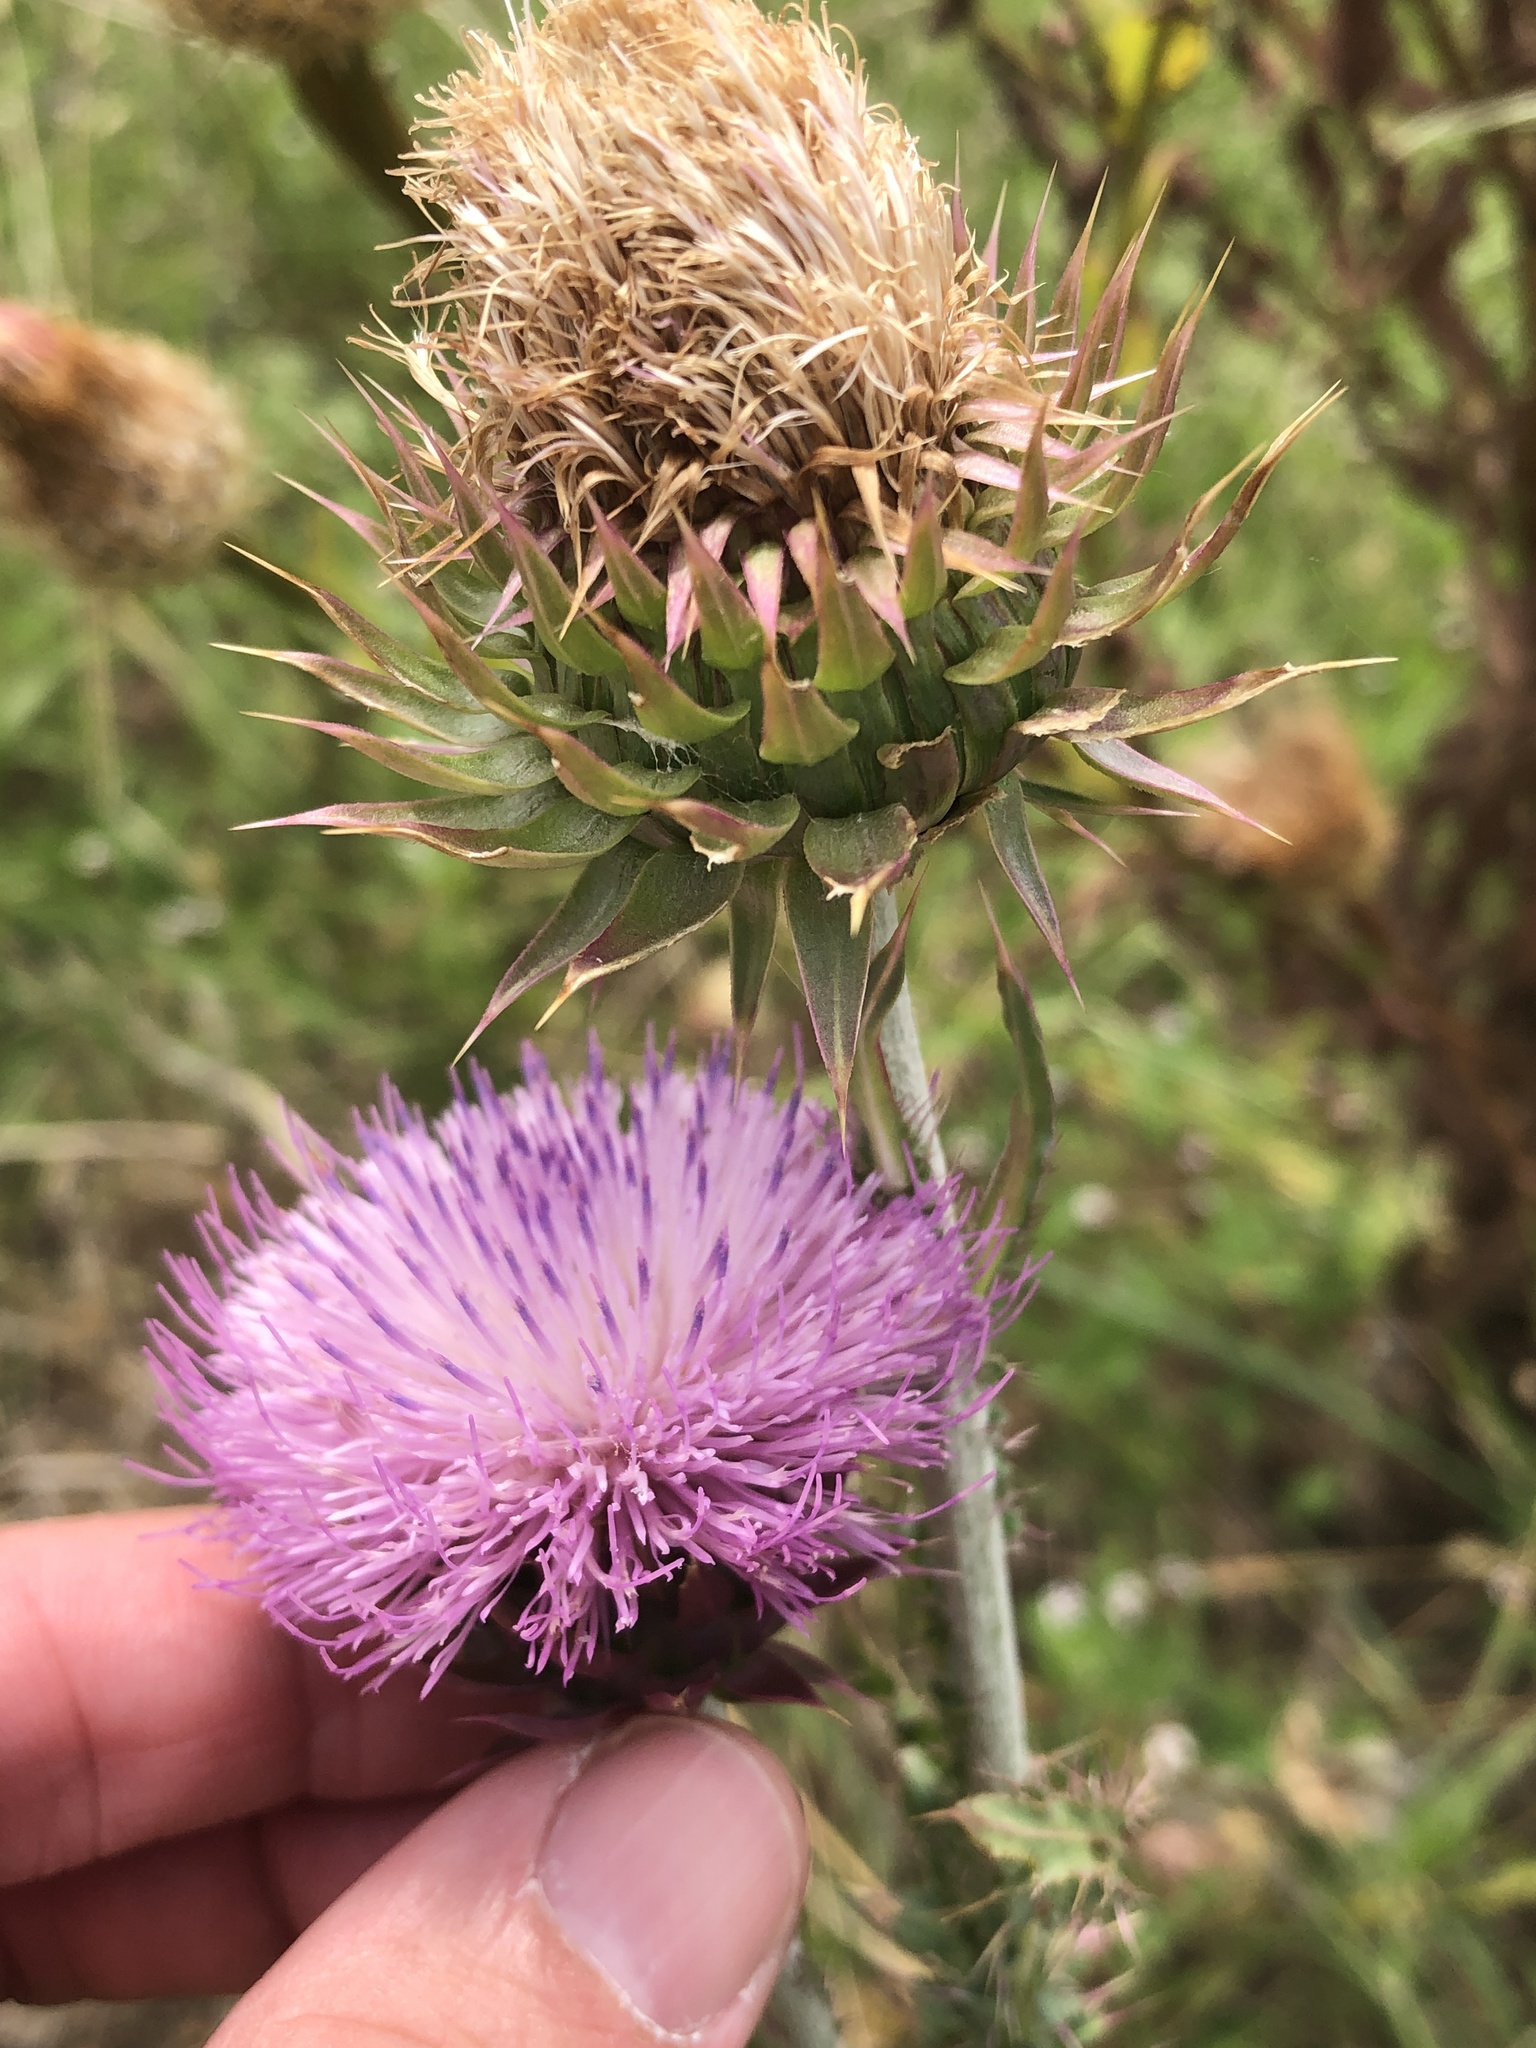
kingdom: Plantae
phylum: Tracheophyta
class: Magnoliopsida
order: Asterales
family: Asteraceae
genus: Carduus
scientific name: Carduus nutans
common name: Musk thistle
